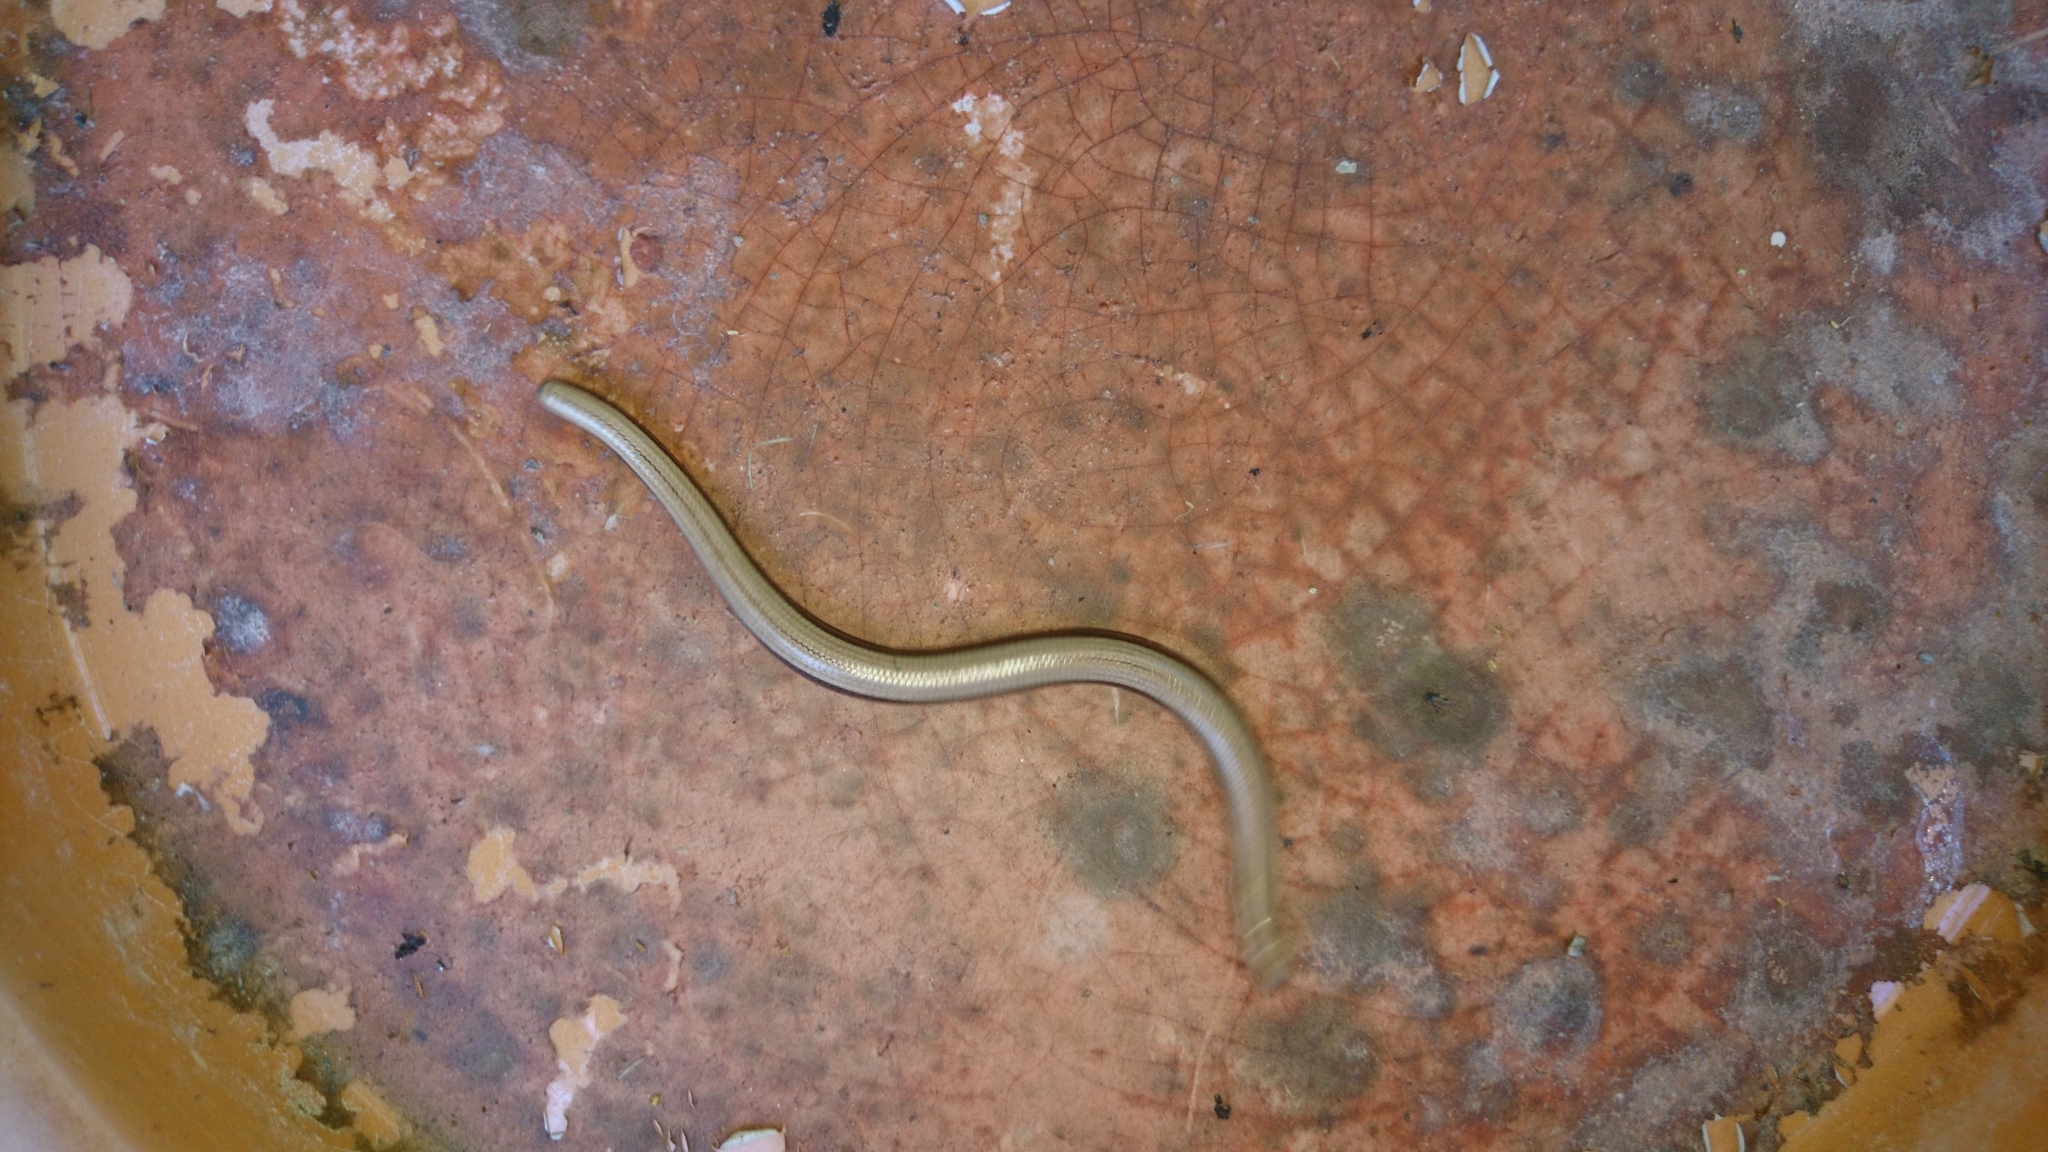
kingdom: Animalia
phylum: Chordata
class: Squamata
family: Anguidae
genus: Anguis
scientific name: Anguis fragilis
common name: Slow worm
